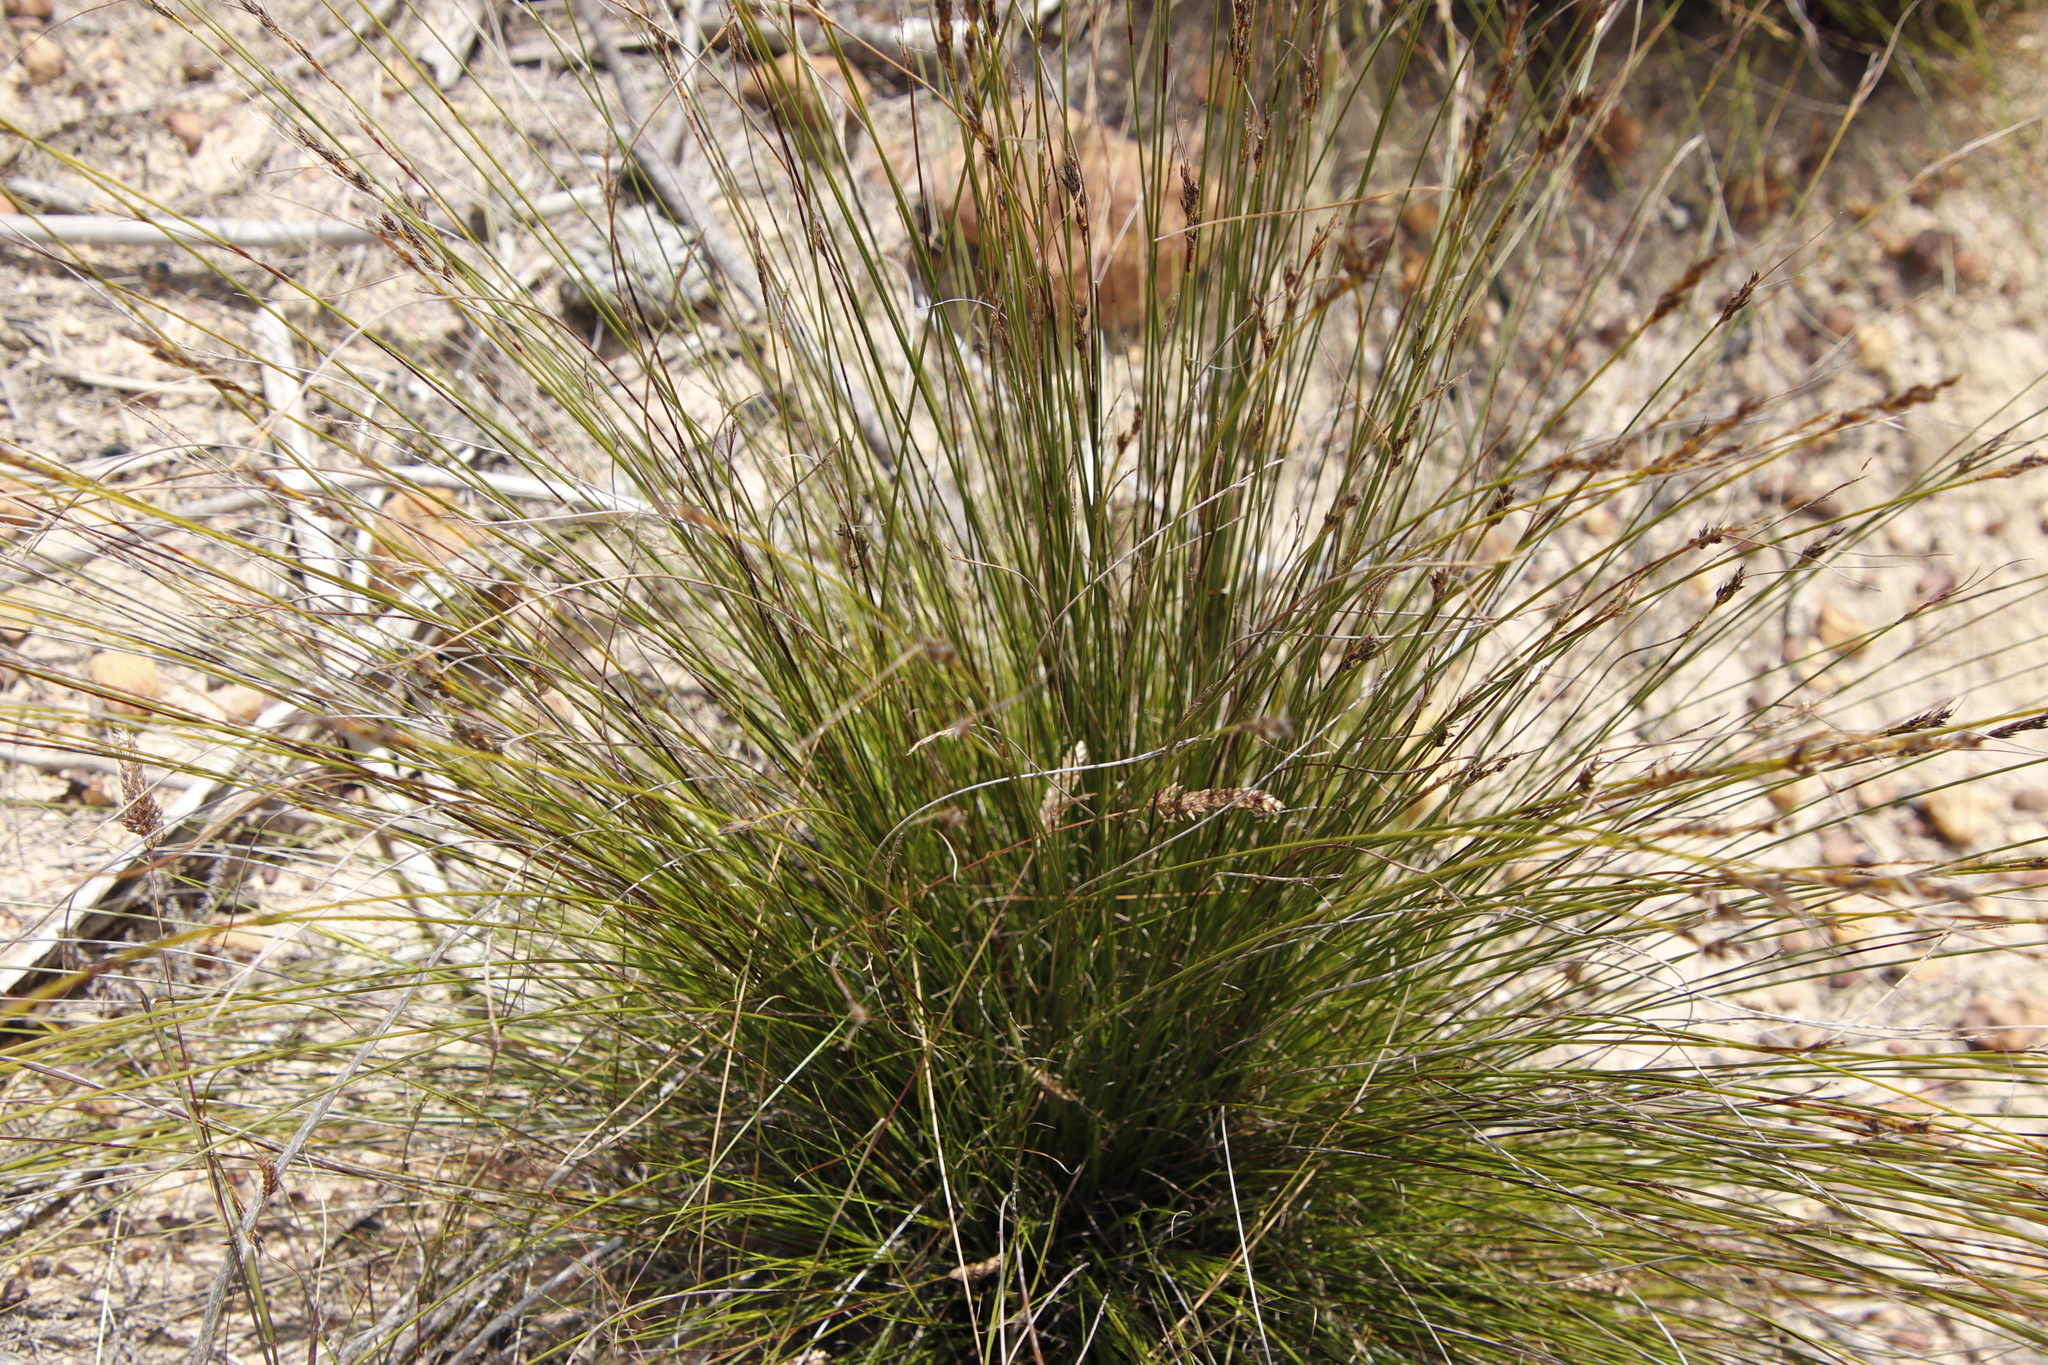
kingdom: Plantae
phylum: Tracheophyta
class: Liliopsida
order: Poales
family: Cyperaceae
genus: Schoenus
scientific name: Schoenus cuspidatus
